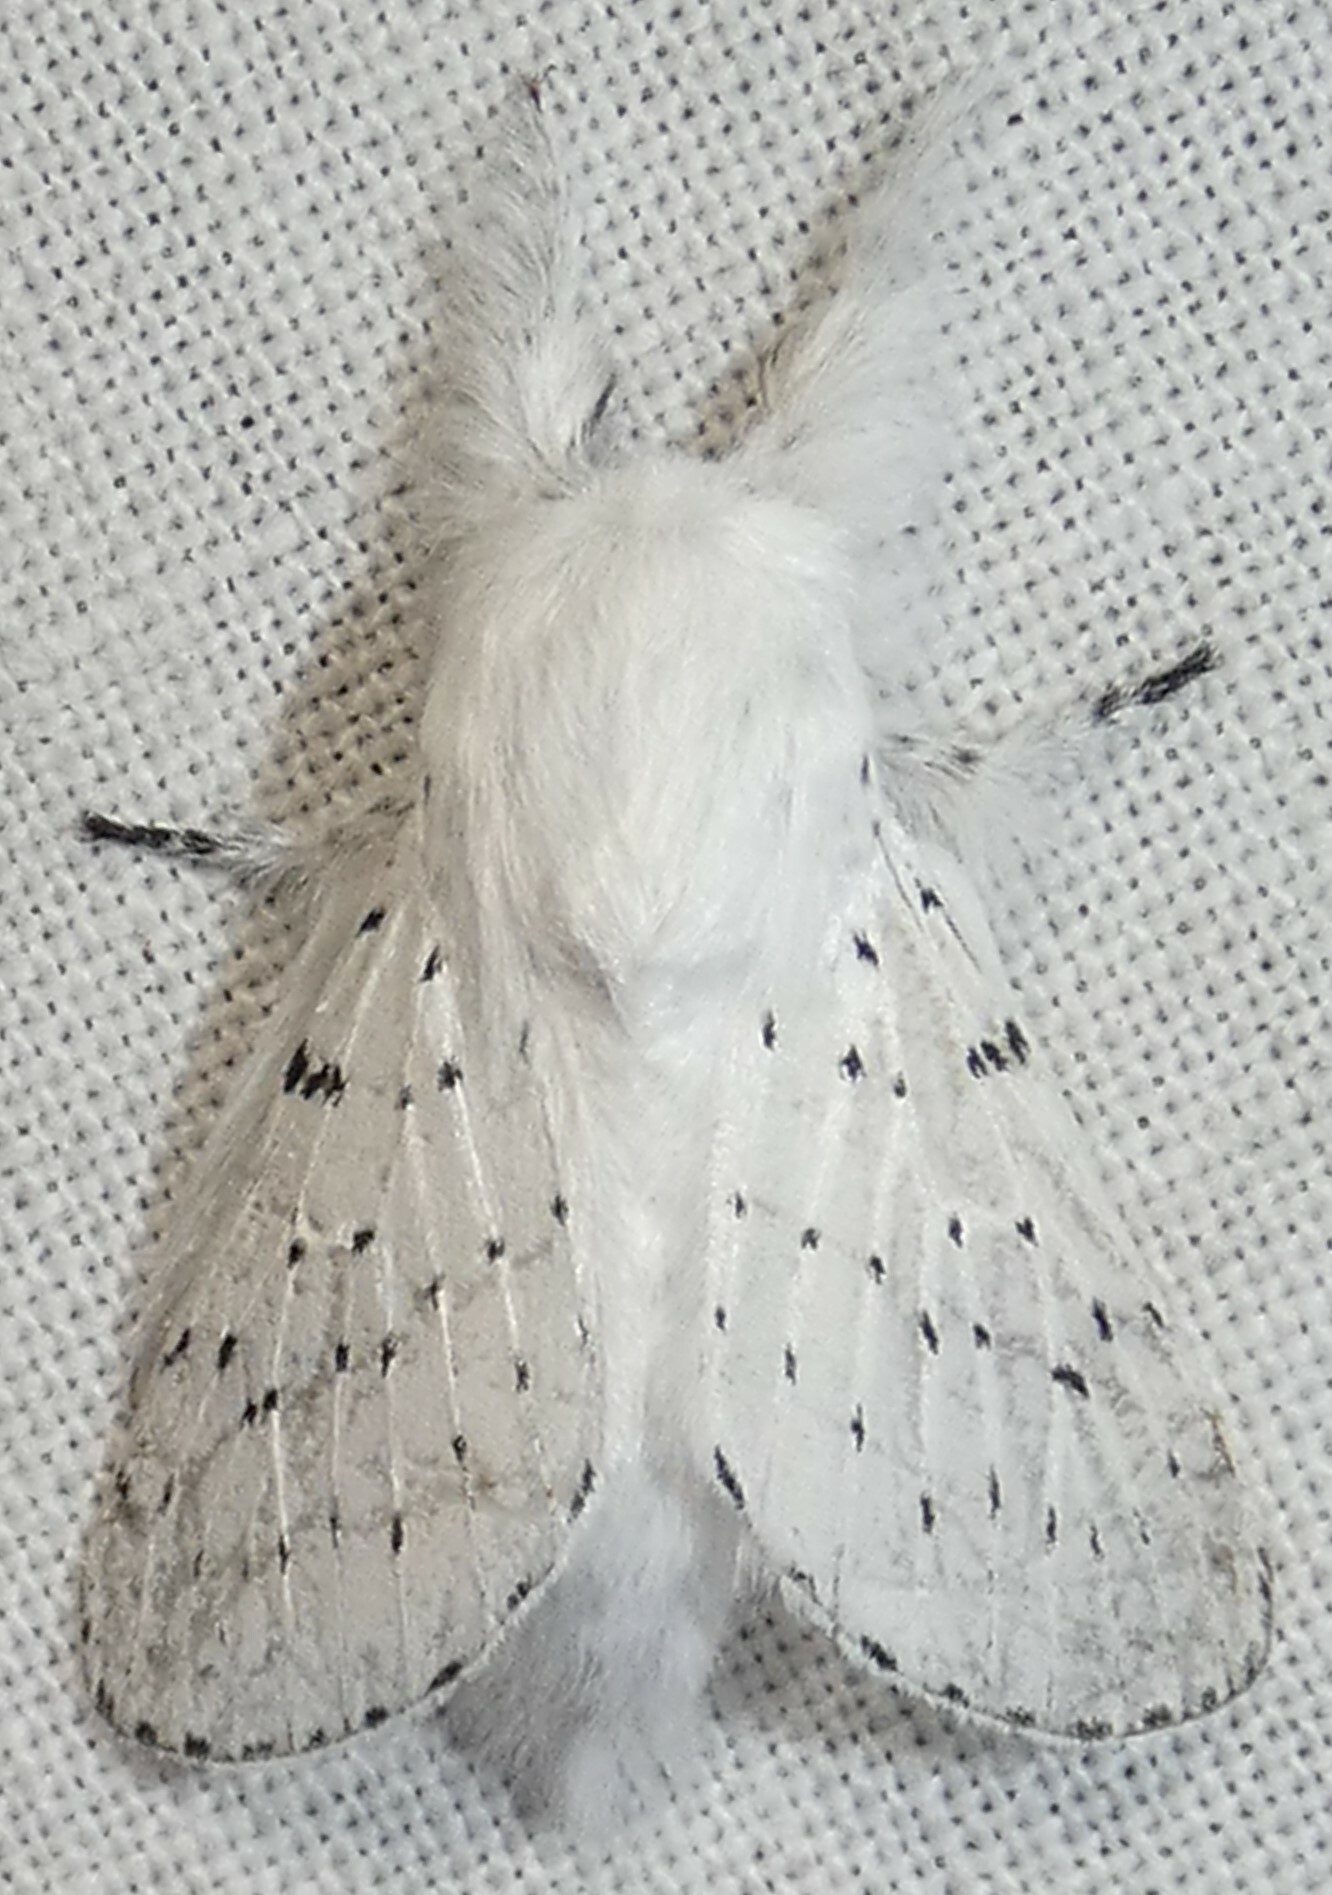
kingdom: Animalia
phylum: Arthropoda
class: Insecta
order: Lepidoptera
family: Lasiocampidae
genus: Artace
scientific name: Artace cribrarius
